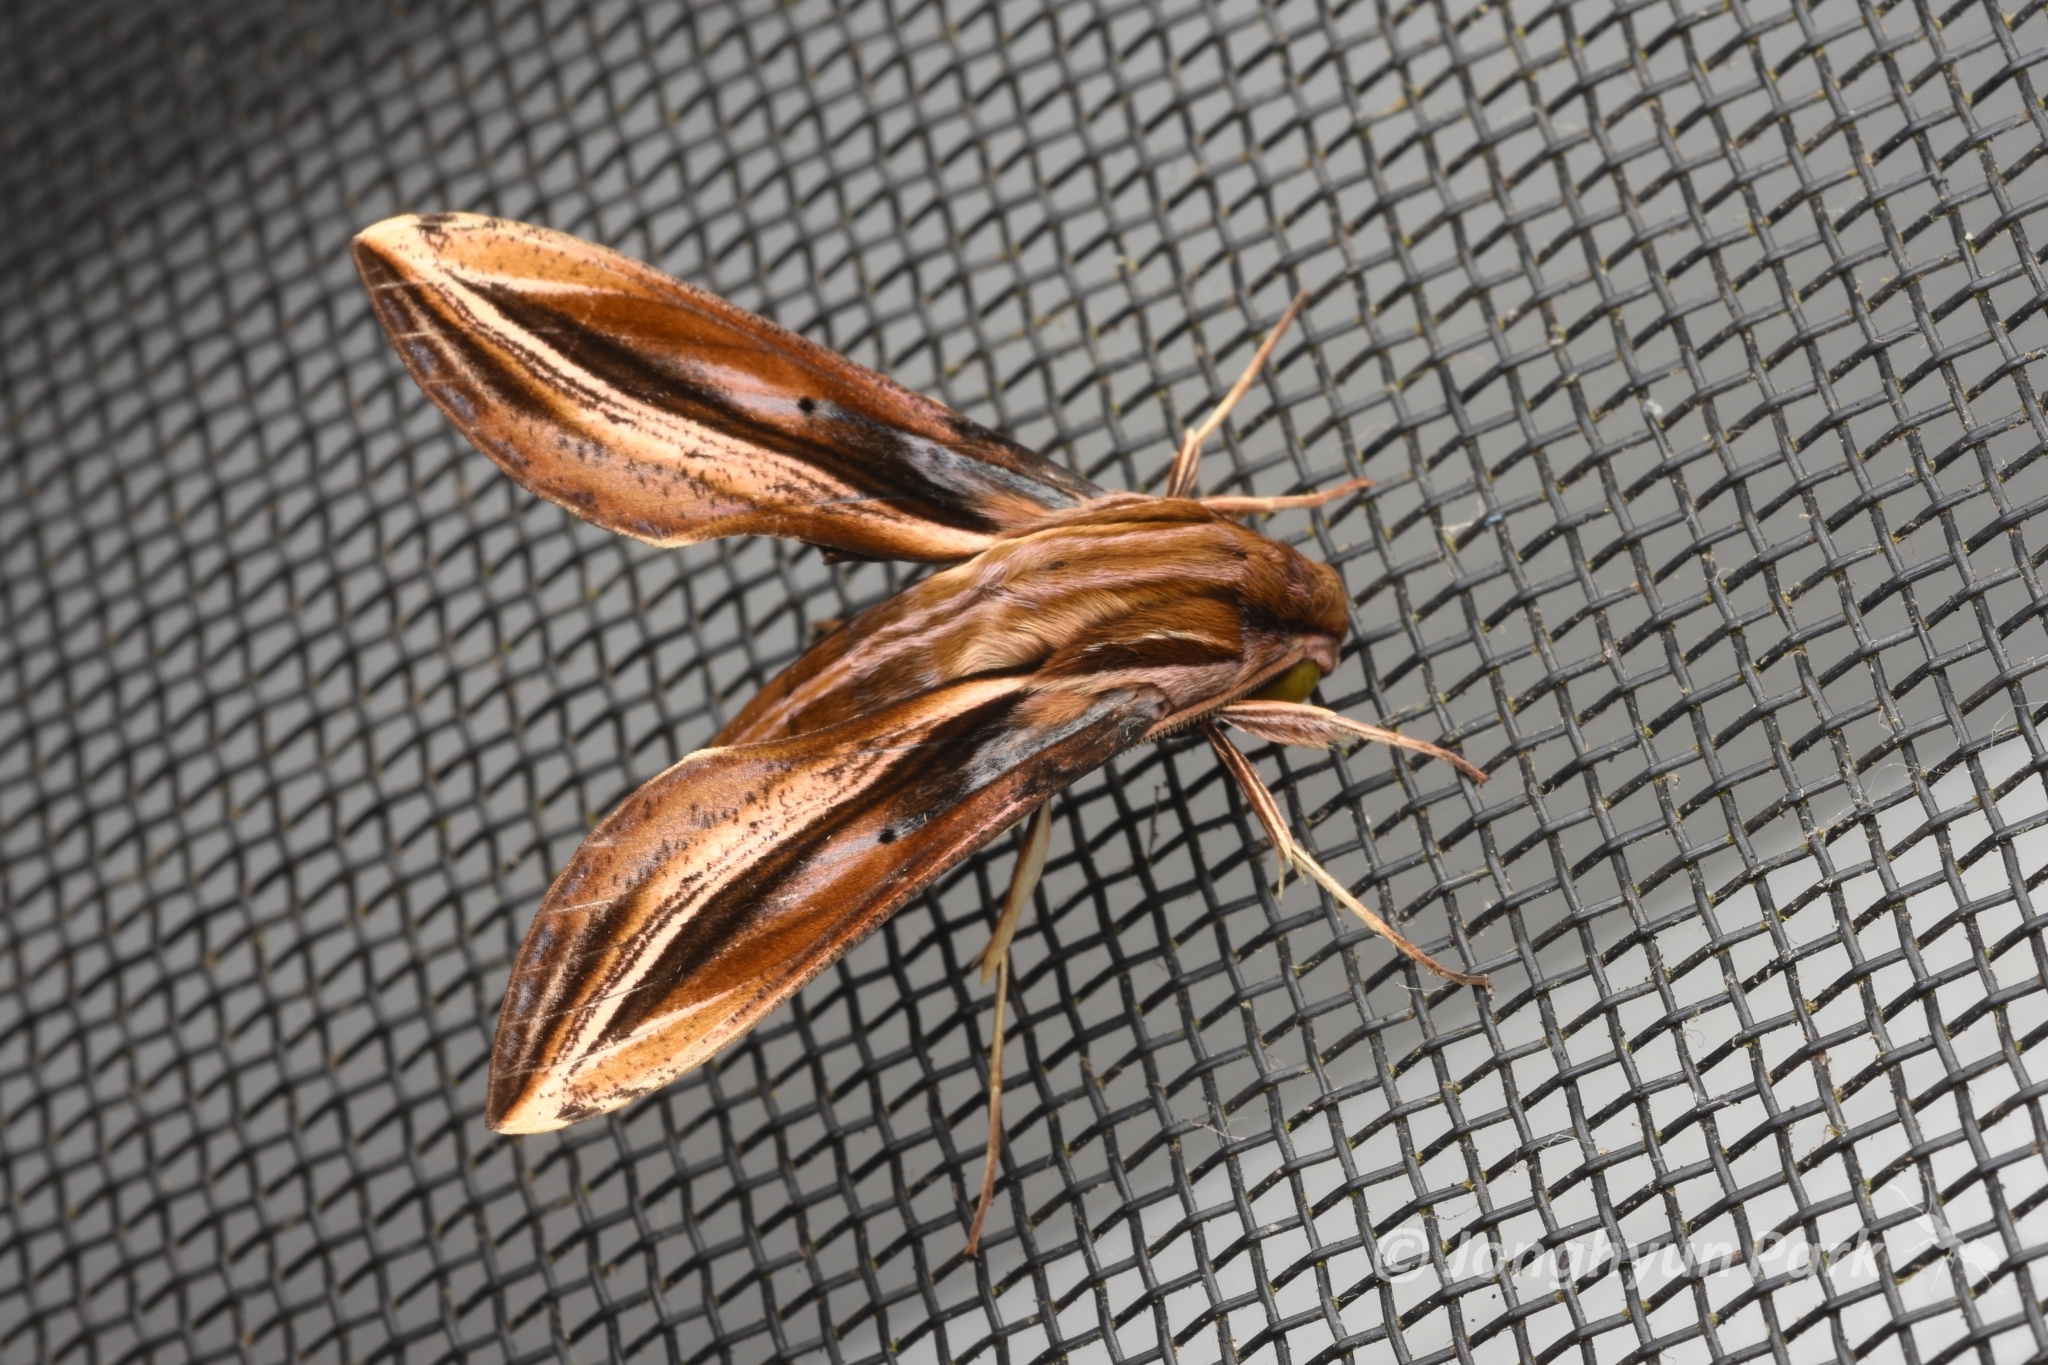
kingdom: Animalia
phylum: Arthropoda
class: Insecta
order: Lepidoptera
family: Sphingidae
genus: Xylophanes
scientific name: Xylophanes thyelia
